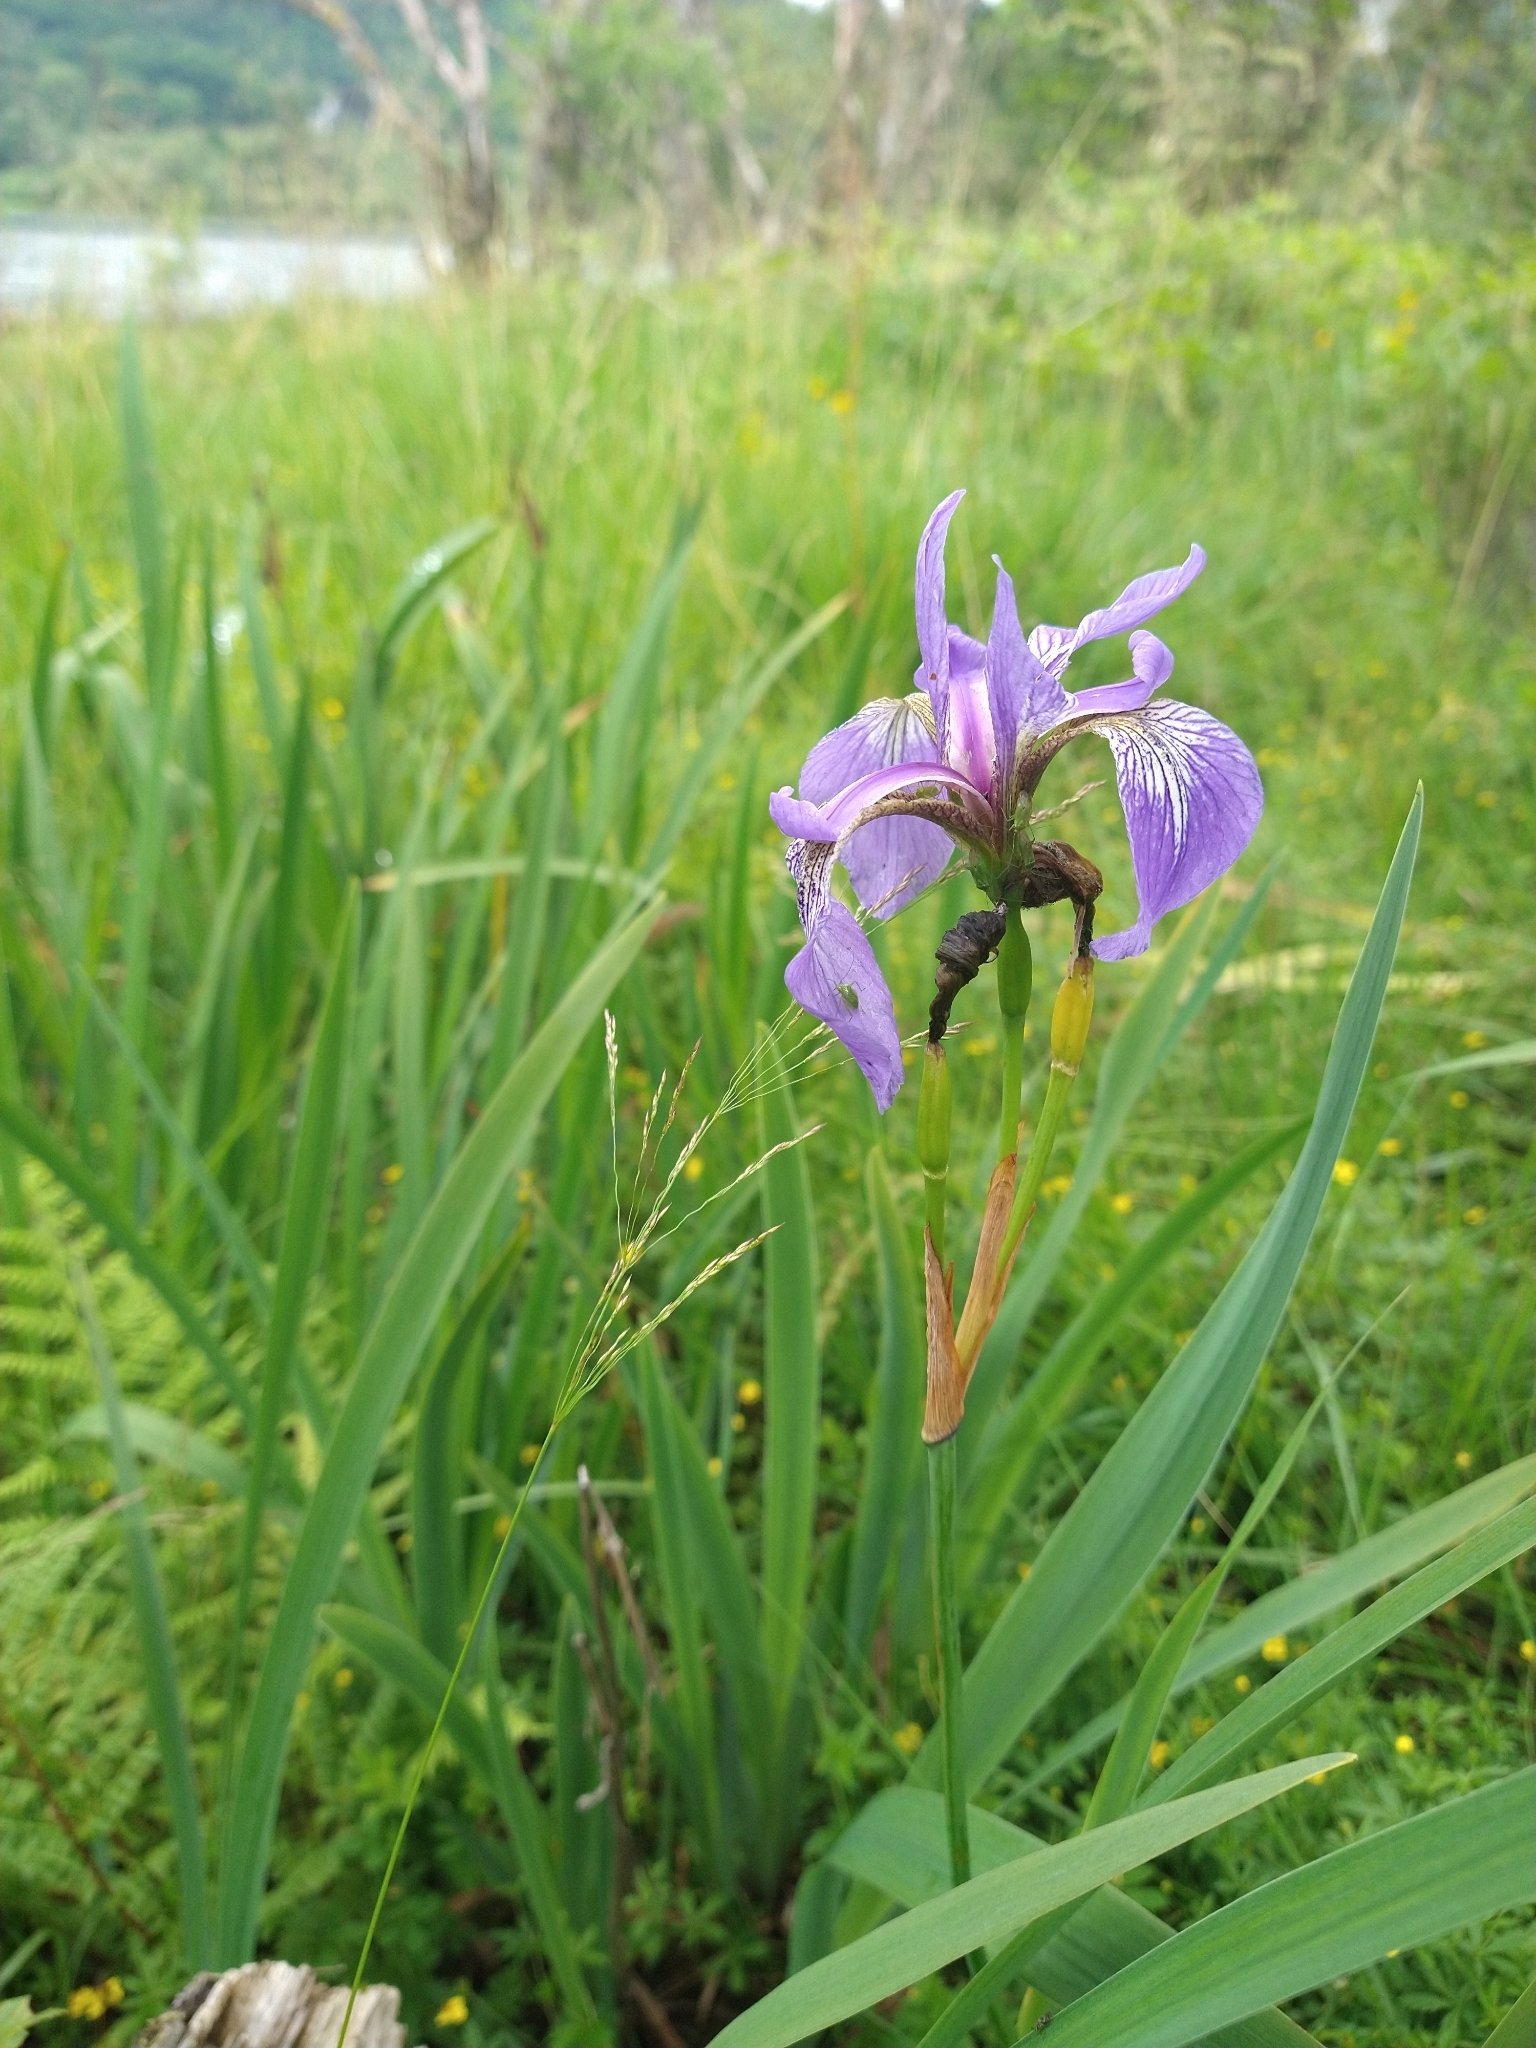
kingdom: Plantae
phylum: Tracheophyta
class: Liliopsida
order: Asparagales
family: Iridaceae
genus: Iris
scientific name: Iris versicolor
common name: Purple iris
